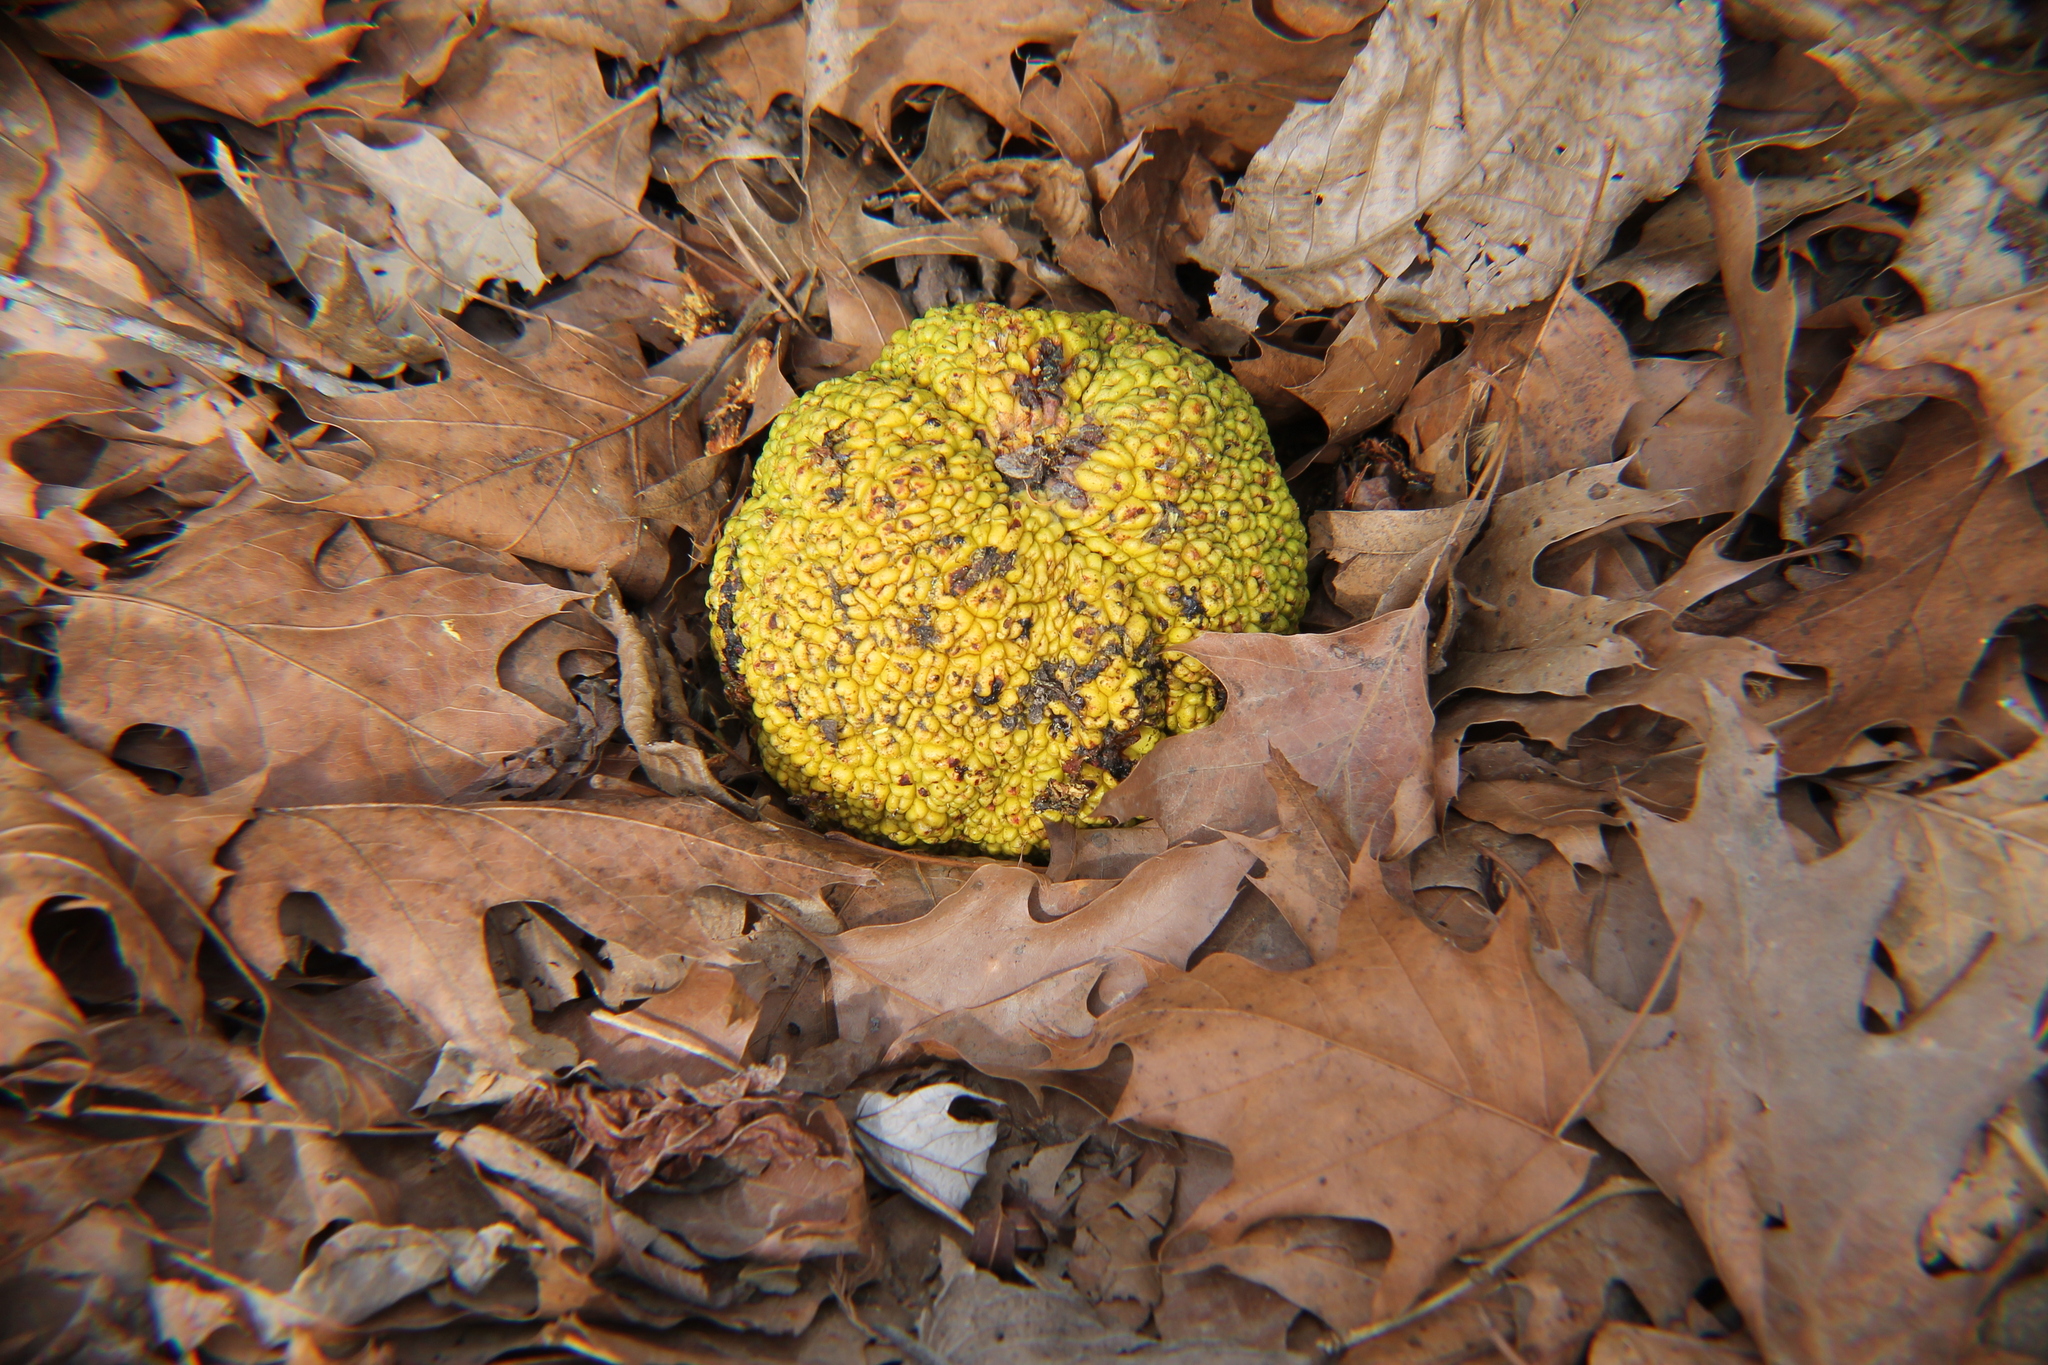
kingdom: Plantae
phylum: Tracheophyta
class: Magnoliopsida
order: Rosales
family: Moraceae
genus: Maclura
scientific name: Maclura pomifera
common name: Osage-orange
